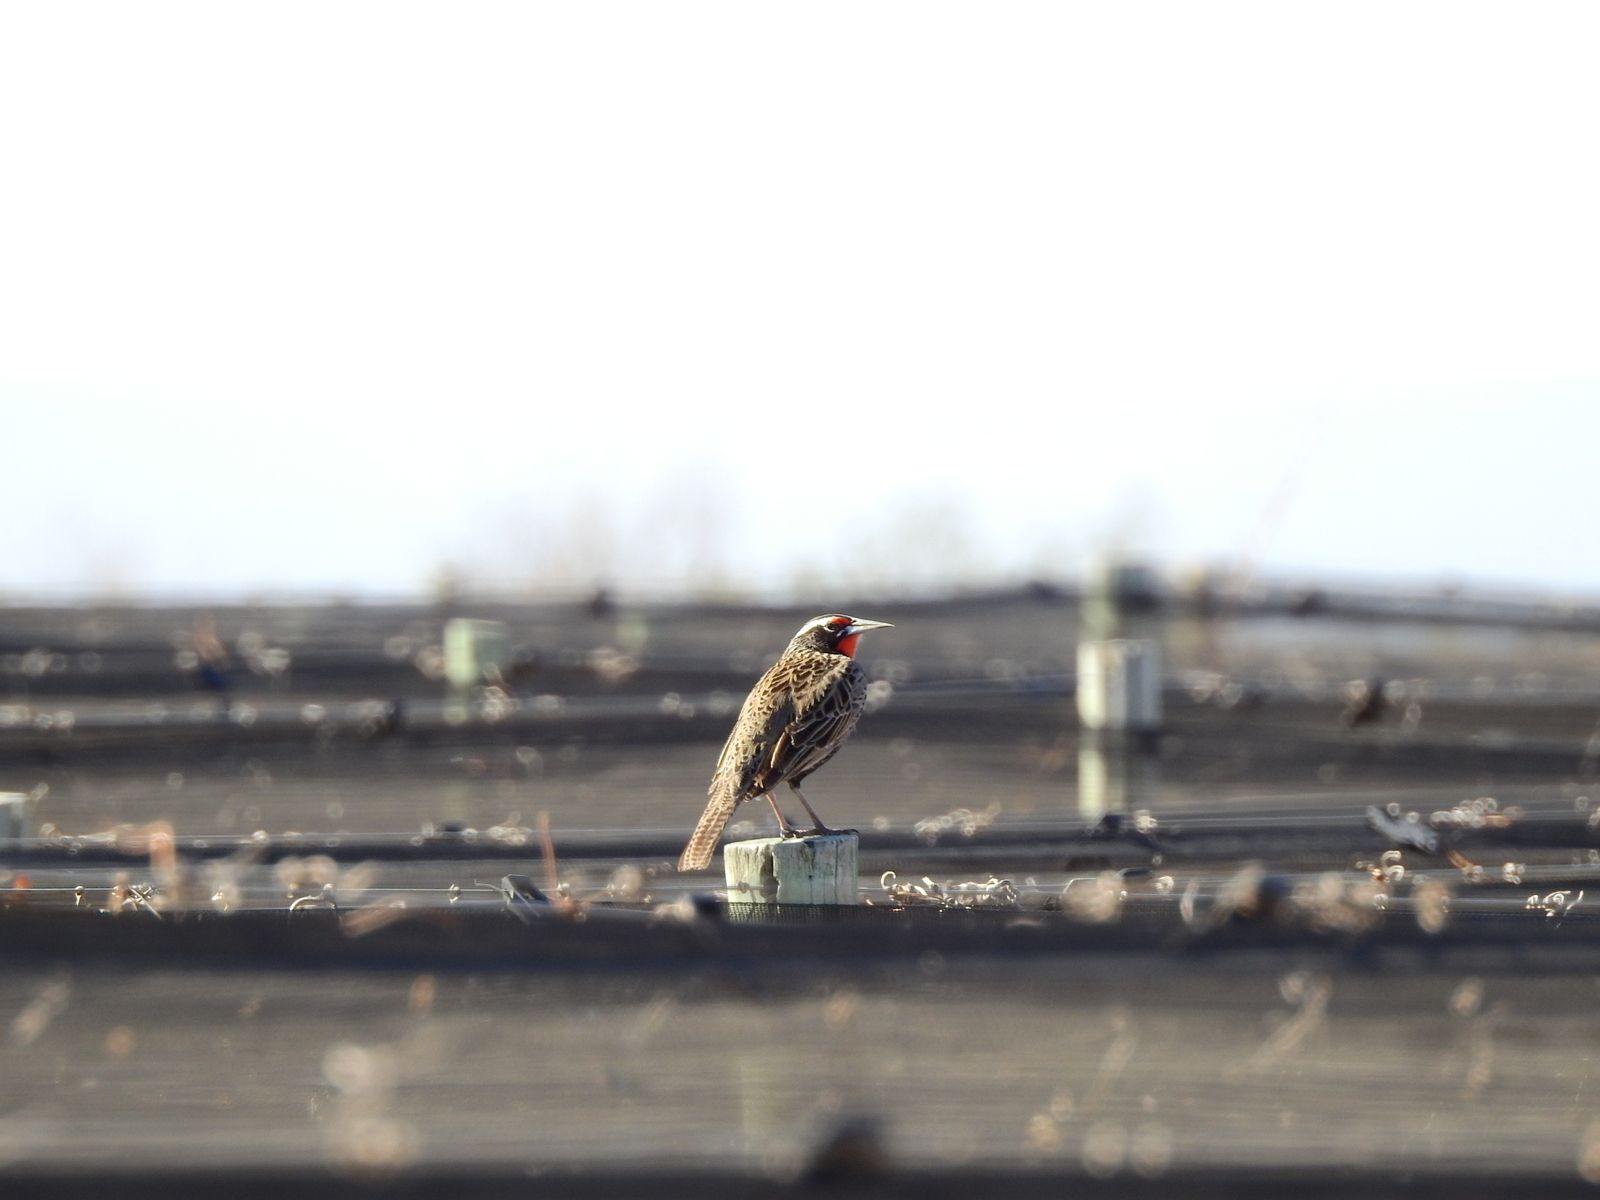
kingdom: Animalia
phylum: Chordata
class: Aves
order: Passeriformes
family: Icteridae
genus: Sturnella
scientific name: Sturnella loyca
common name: Long-tailed meadowlark
